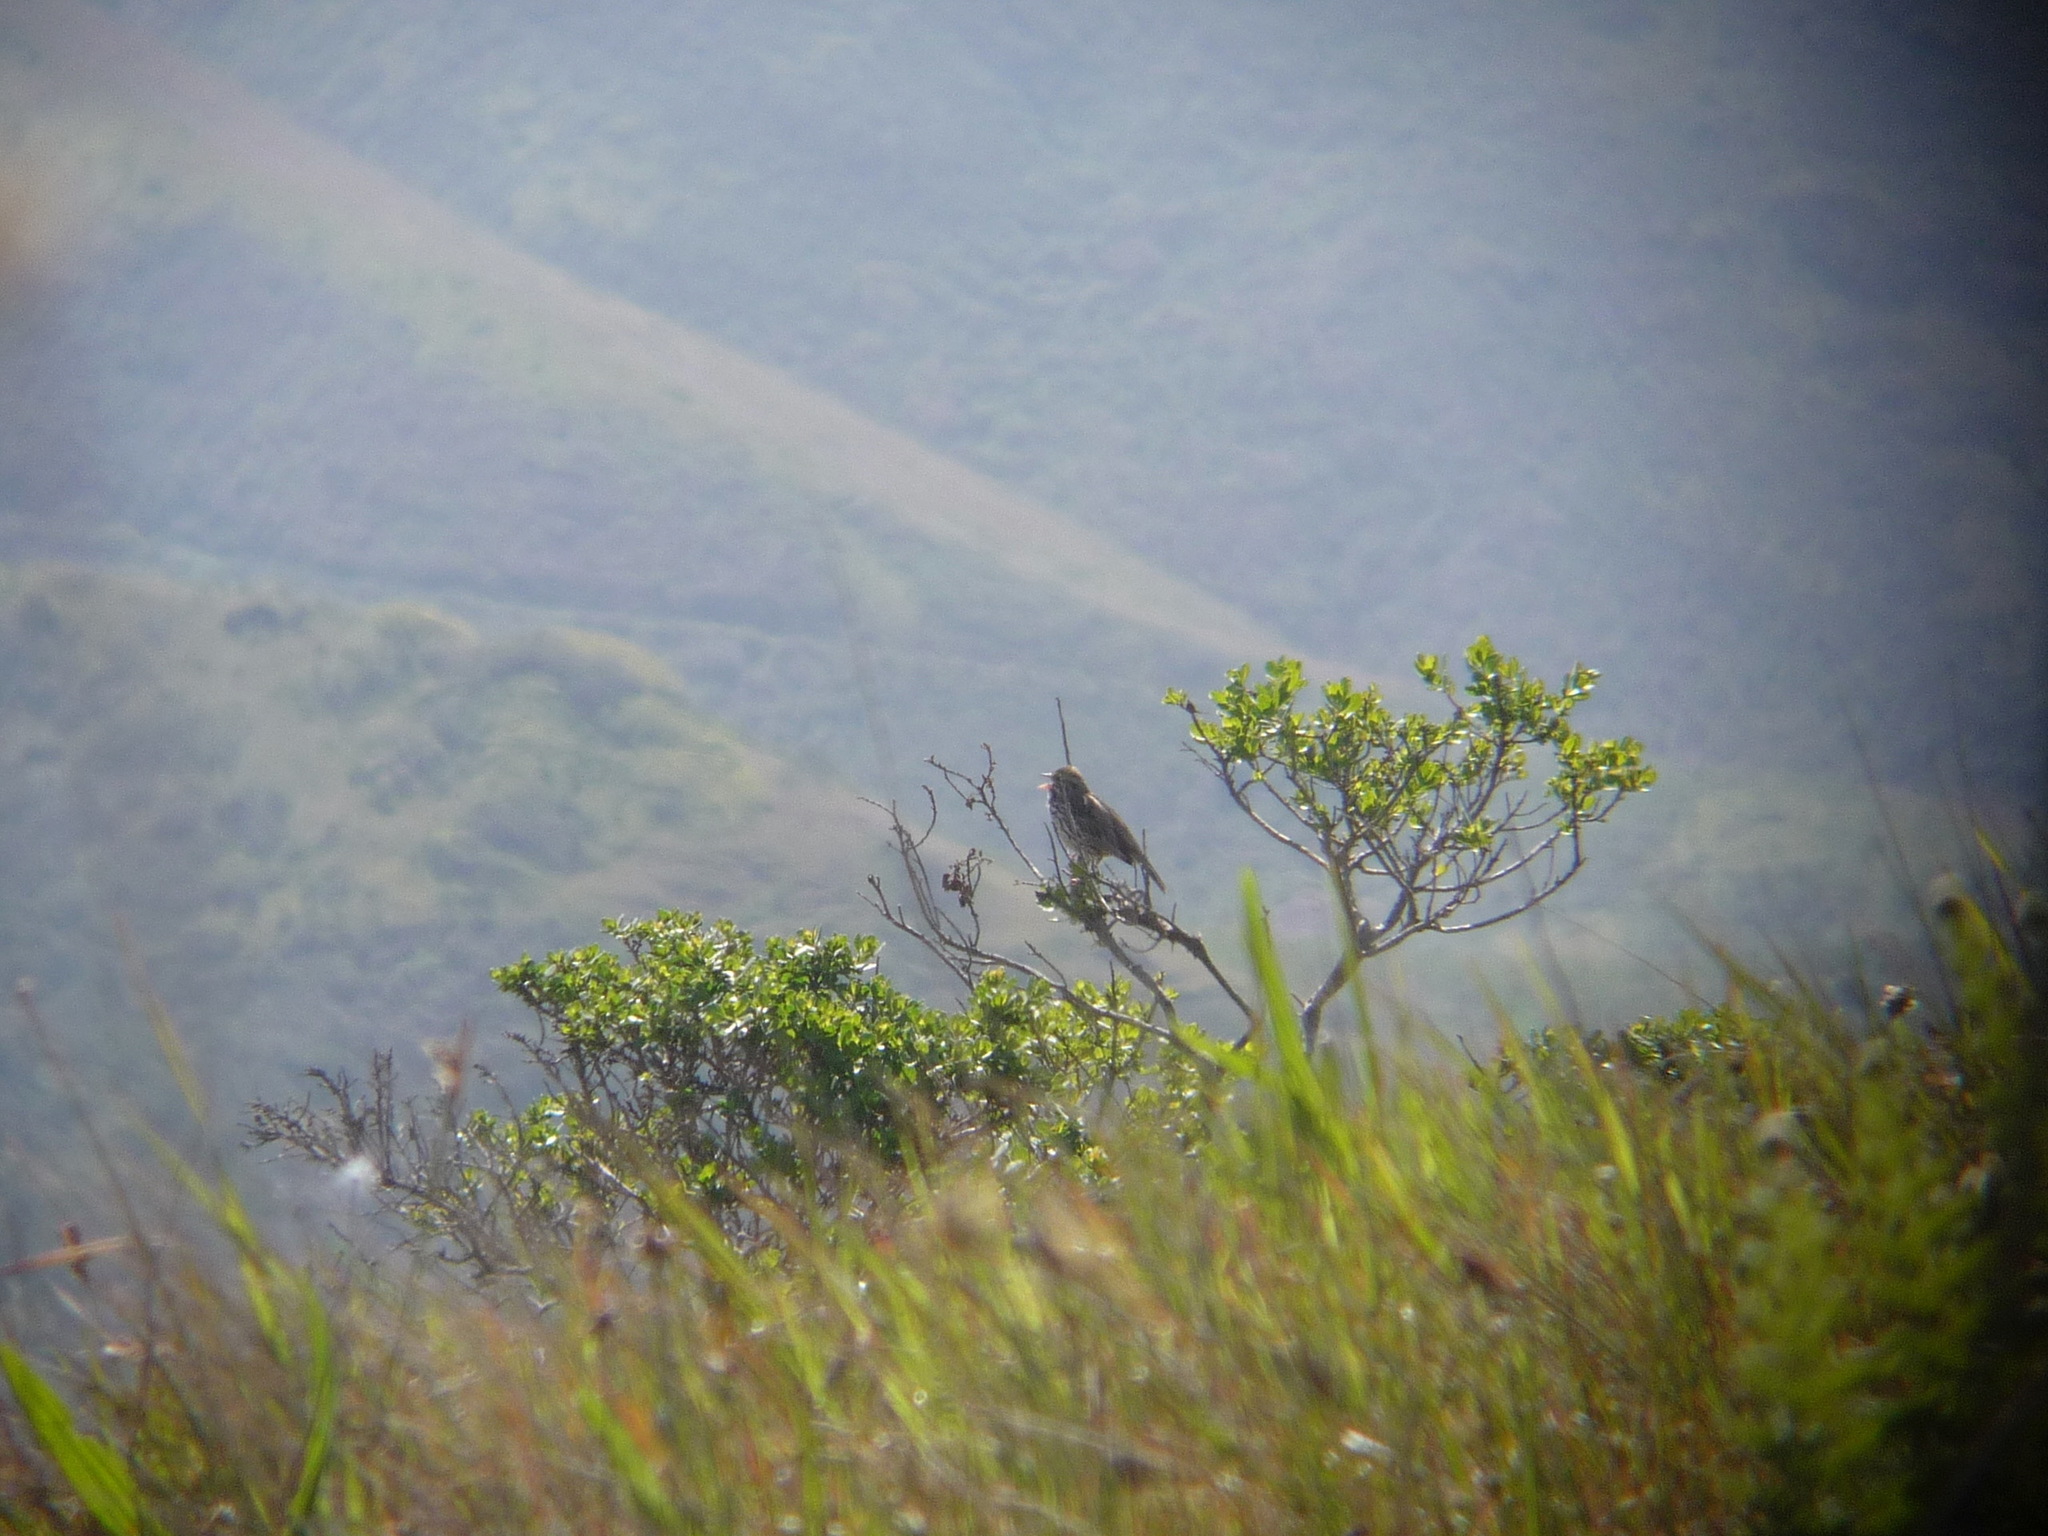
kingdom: Animalia
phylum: Chordata
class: Aves
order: Passeriformes
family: Passerellidae
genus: Passerculus
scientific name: Passerculus sandwichensis
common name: Savannah sparrow
